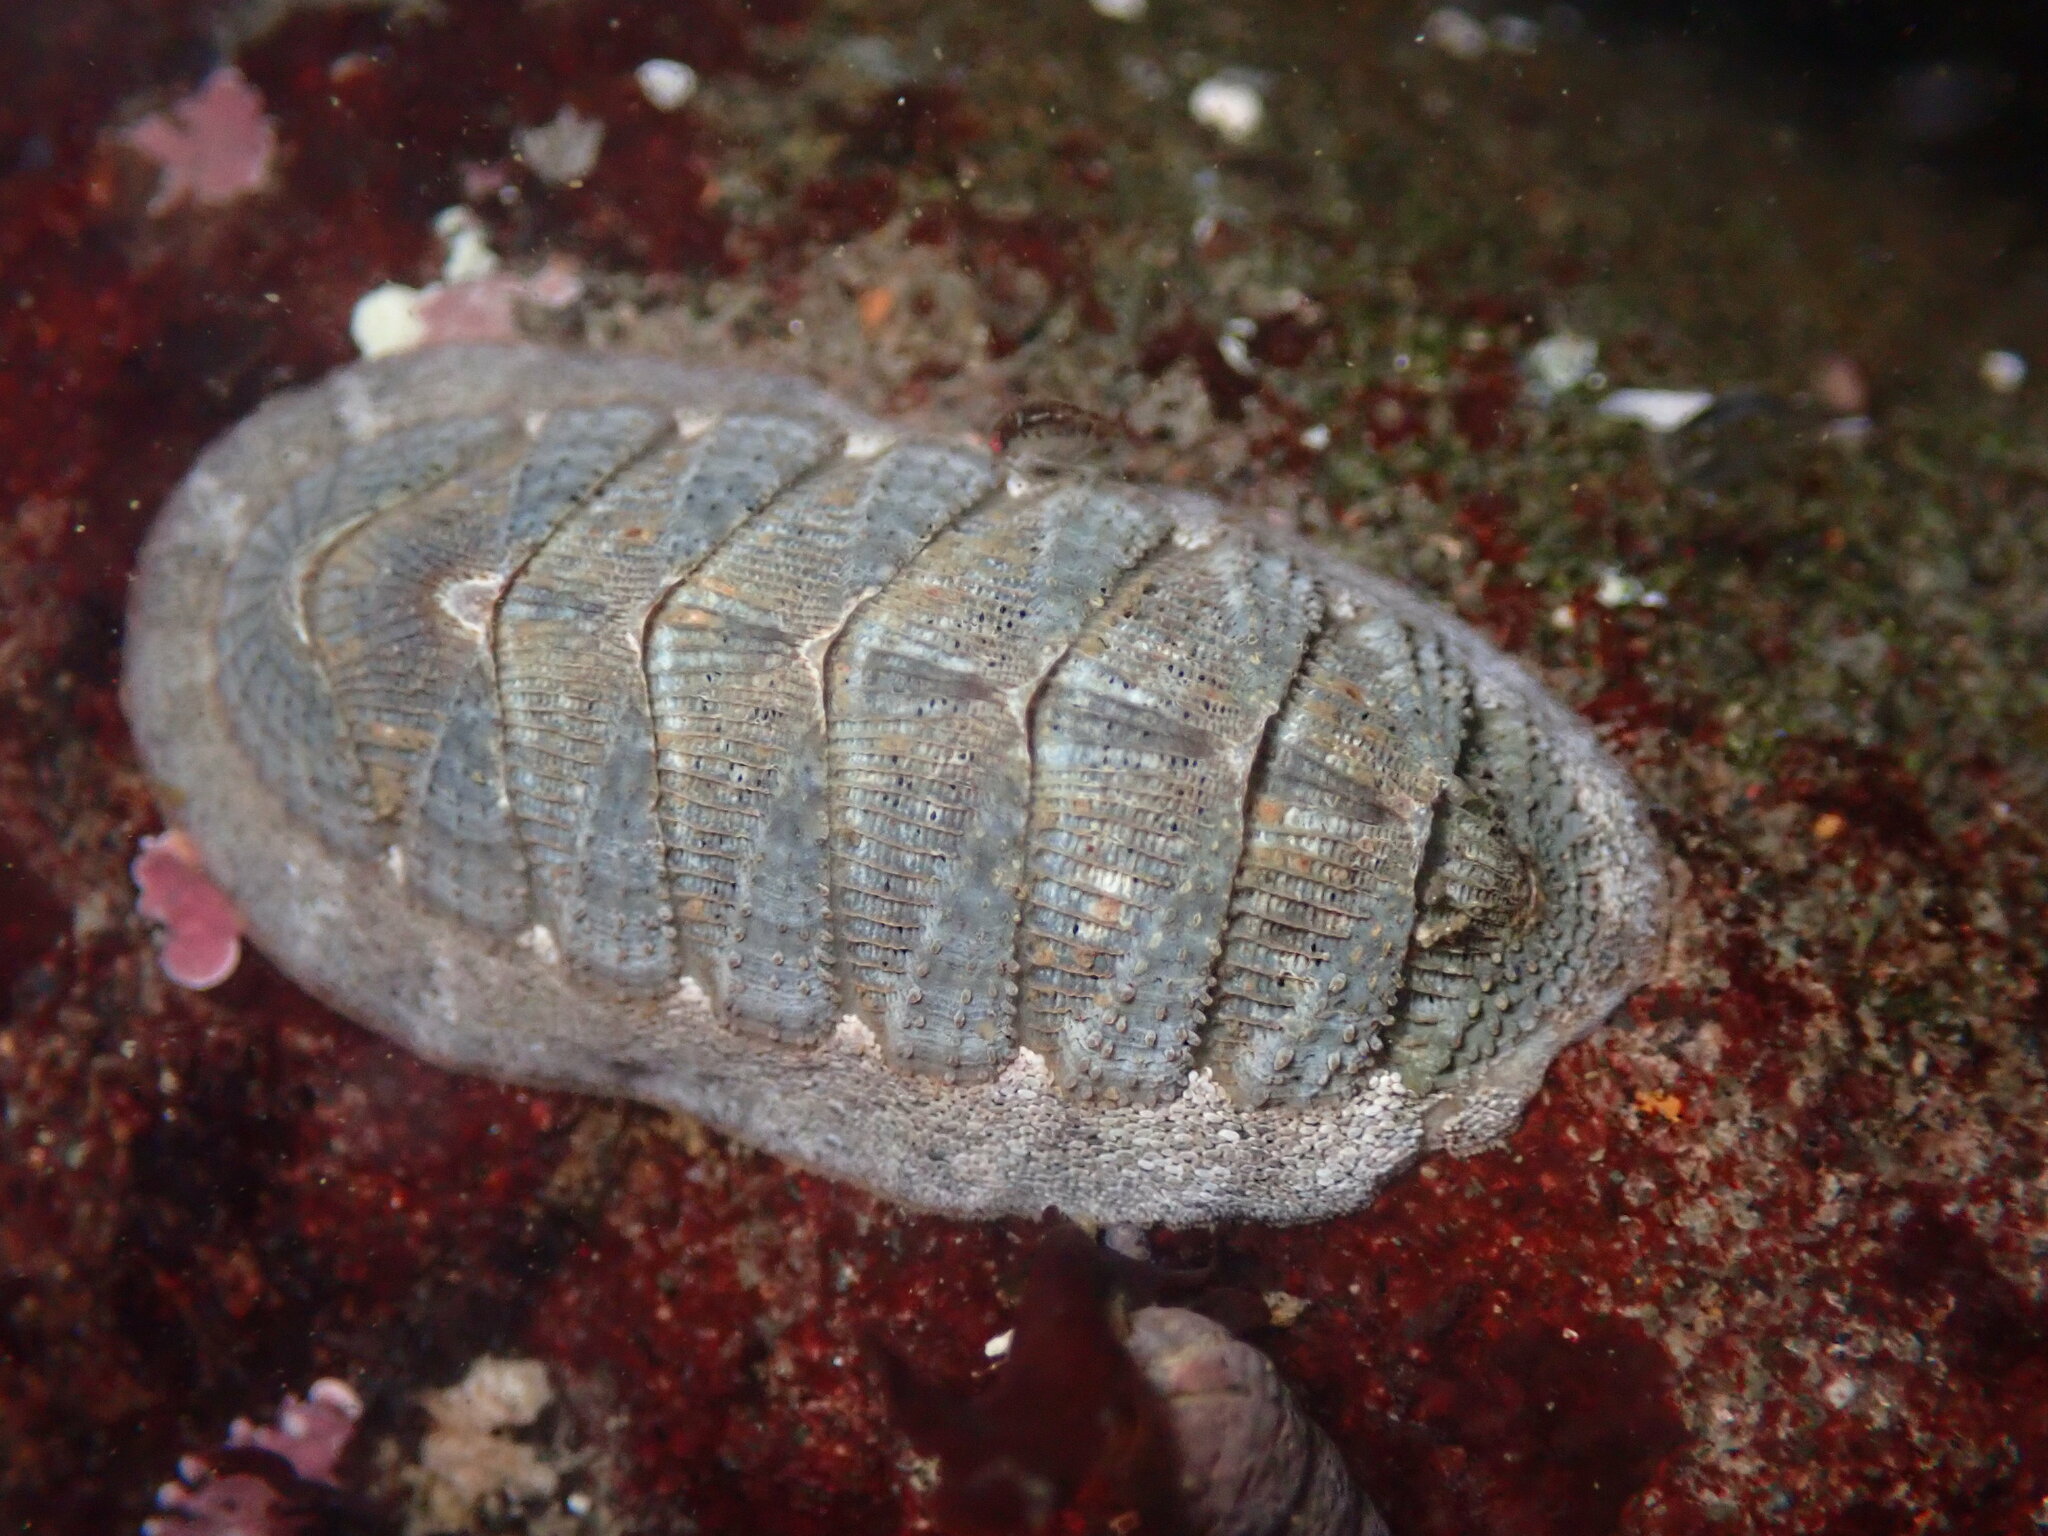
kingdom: Animalia
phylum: Mollusca
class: Polyplacophora
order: Chitonida
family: Ischnochitonidae
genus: Lepidozona
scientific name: Lepidozona cooperi
